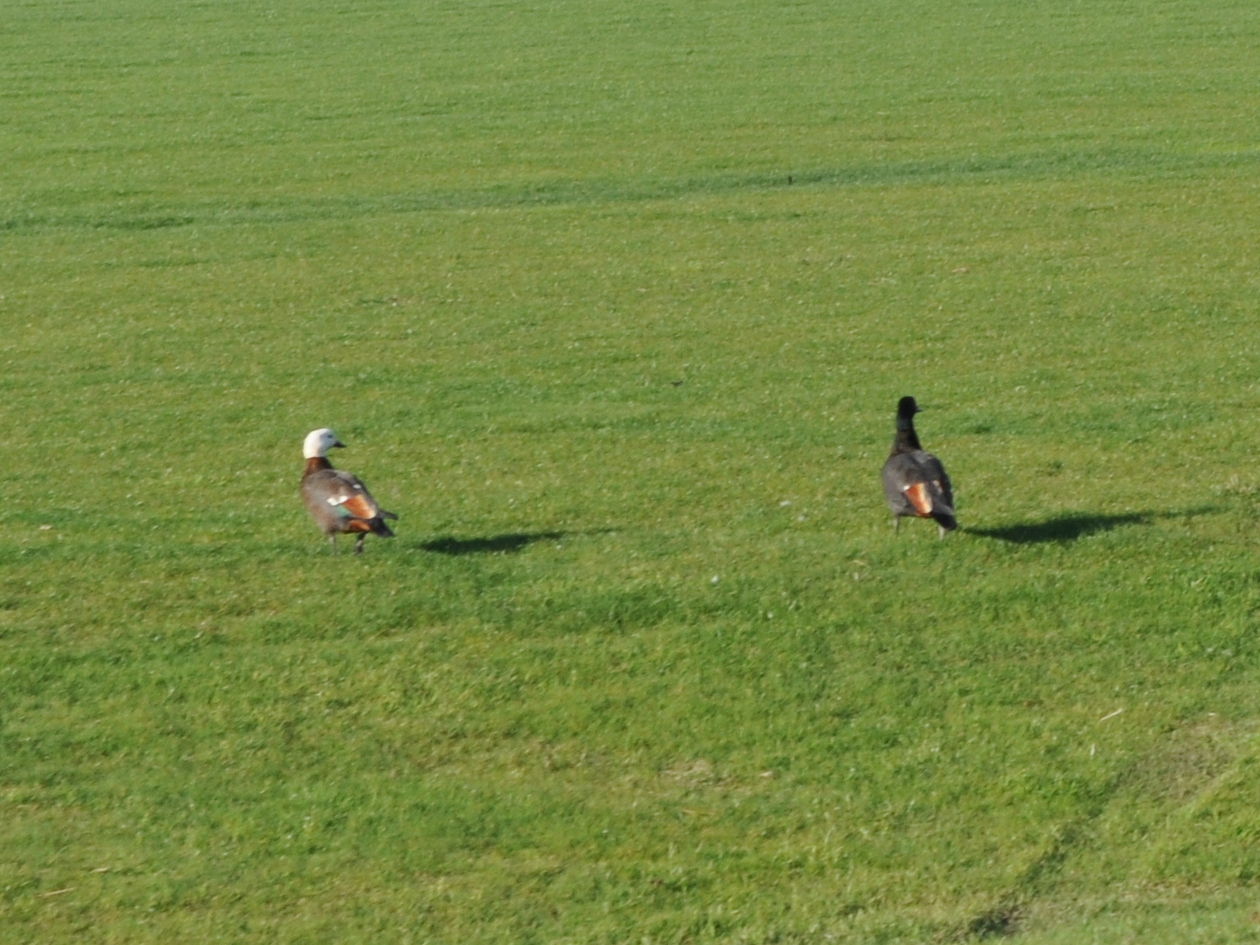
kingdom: Animalia
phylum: Chordata
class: Aves
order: Anseriformes
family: Anatidae
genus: Tadorna
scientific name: Tadorna variegata
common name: Paradise shelduck
